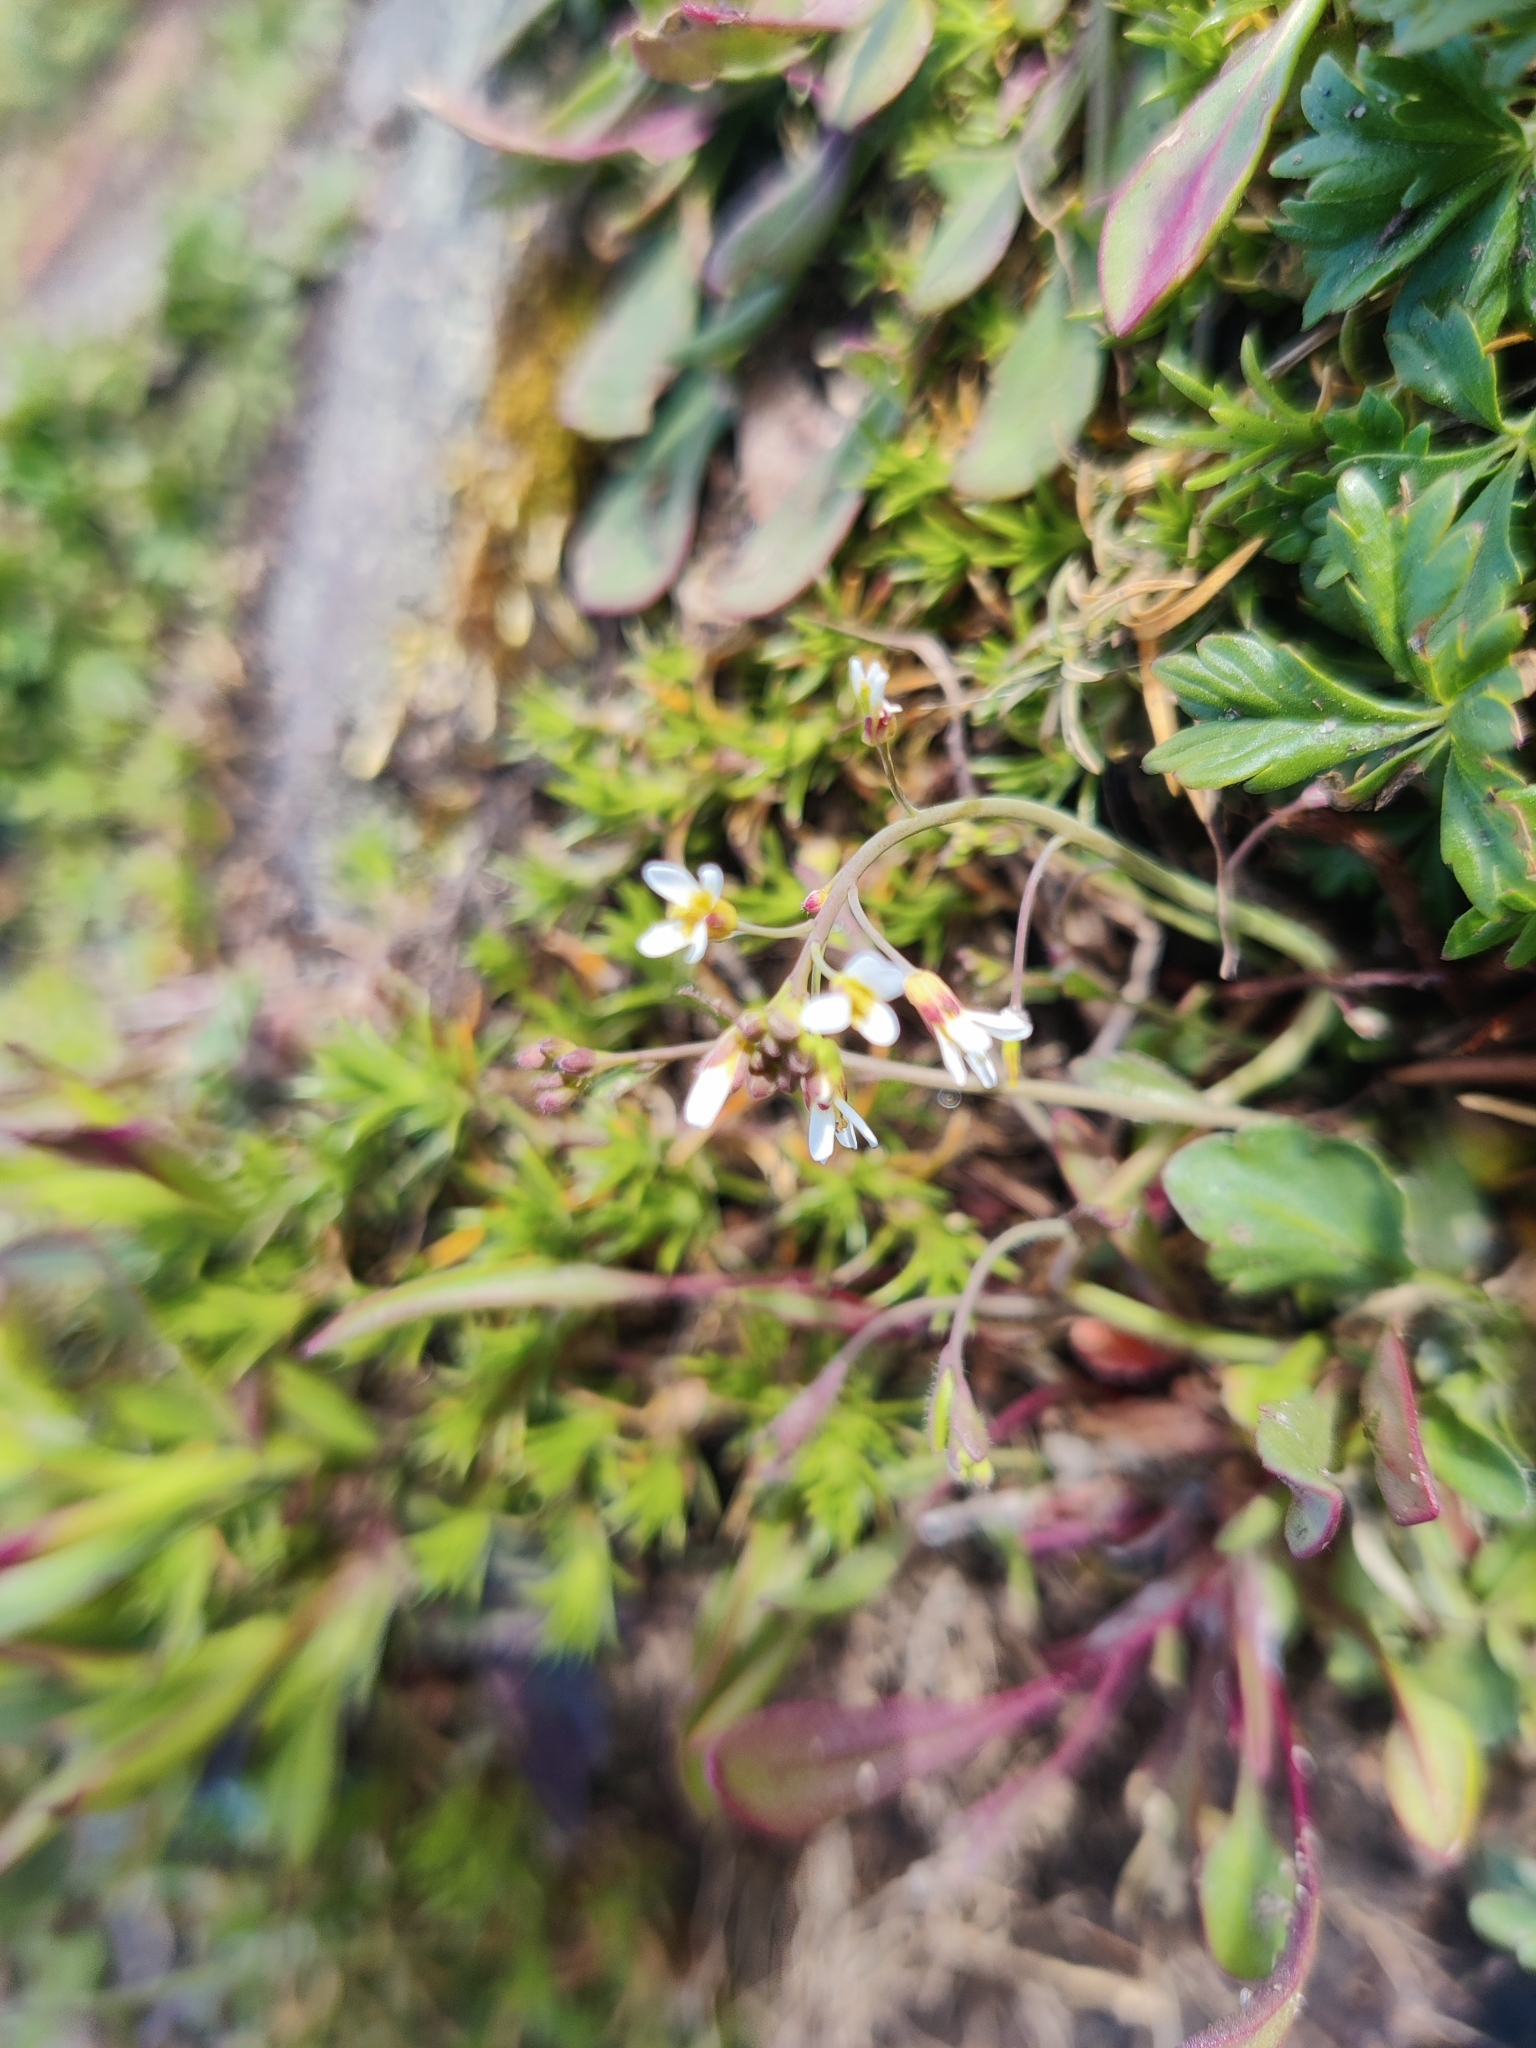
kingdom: Plantae
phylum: Tracheophyta
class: Magnoliopsida
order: Brassicales
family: Brassicaceae
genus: Capsella
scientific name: Capsella bursa-pastoris
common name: Shepherd's purse
